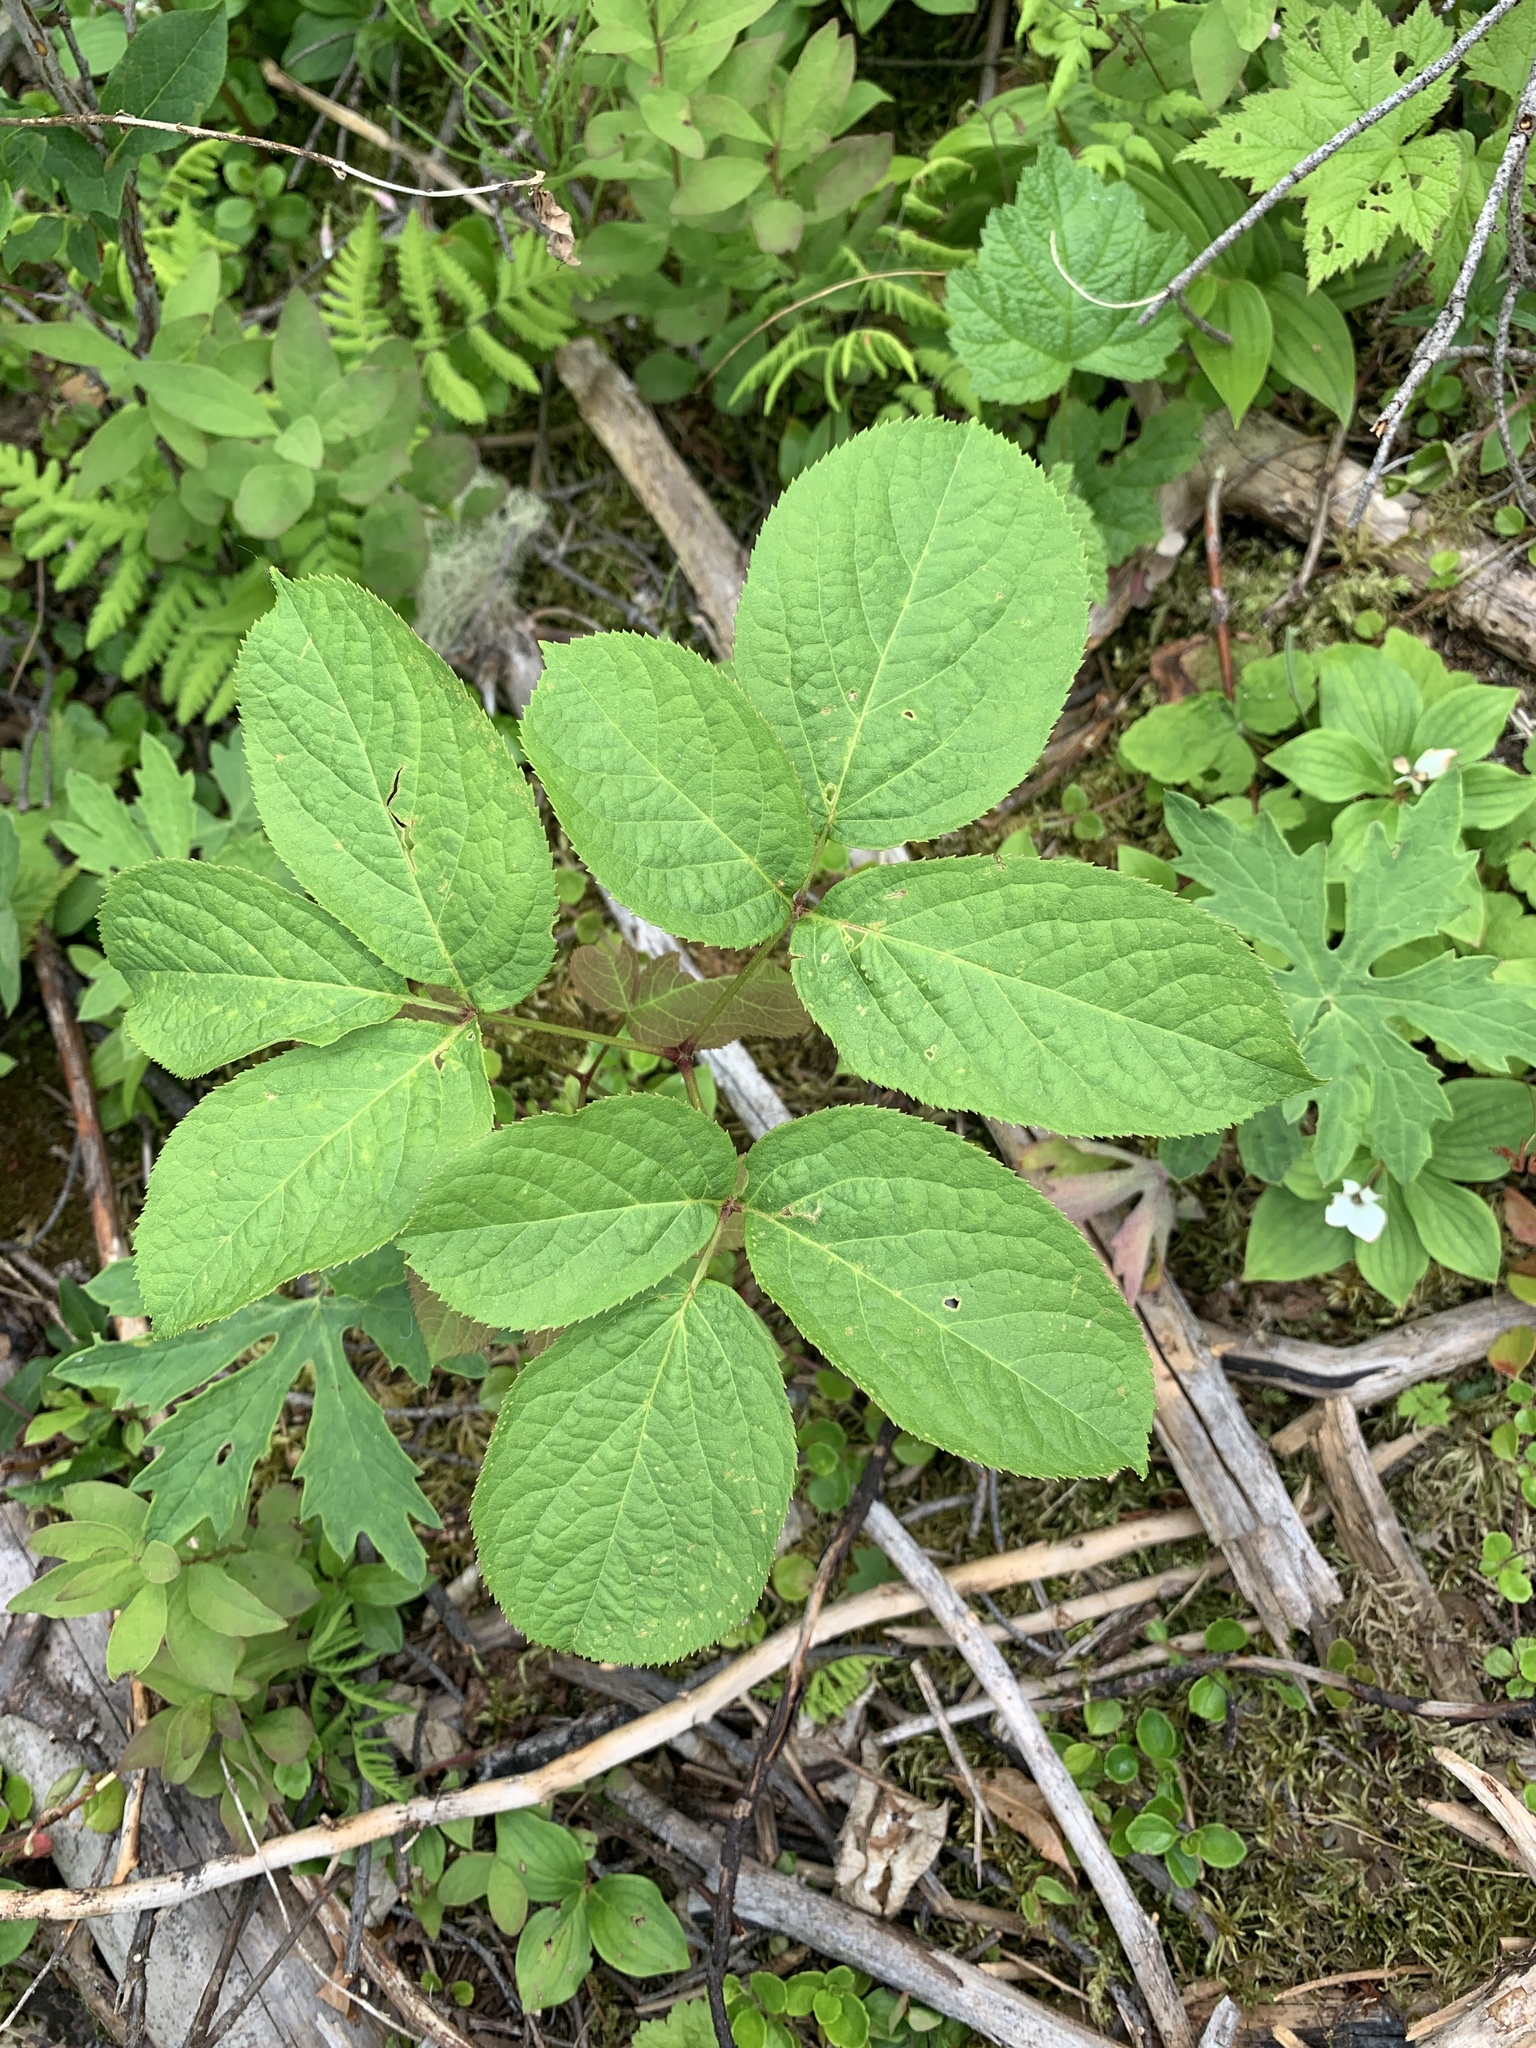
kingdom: Plantae
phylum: Tracheophyta
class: Magnoliopsida
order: Apiales
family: Araliaceae
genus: Aralia
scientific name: Aralia nudicaulis
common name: Wild sarsaparilla
